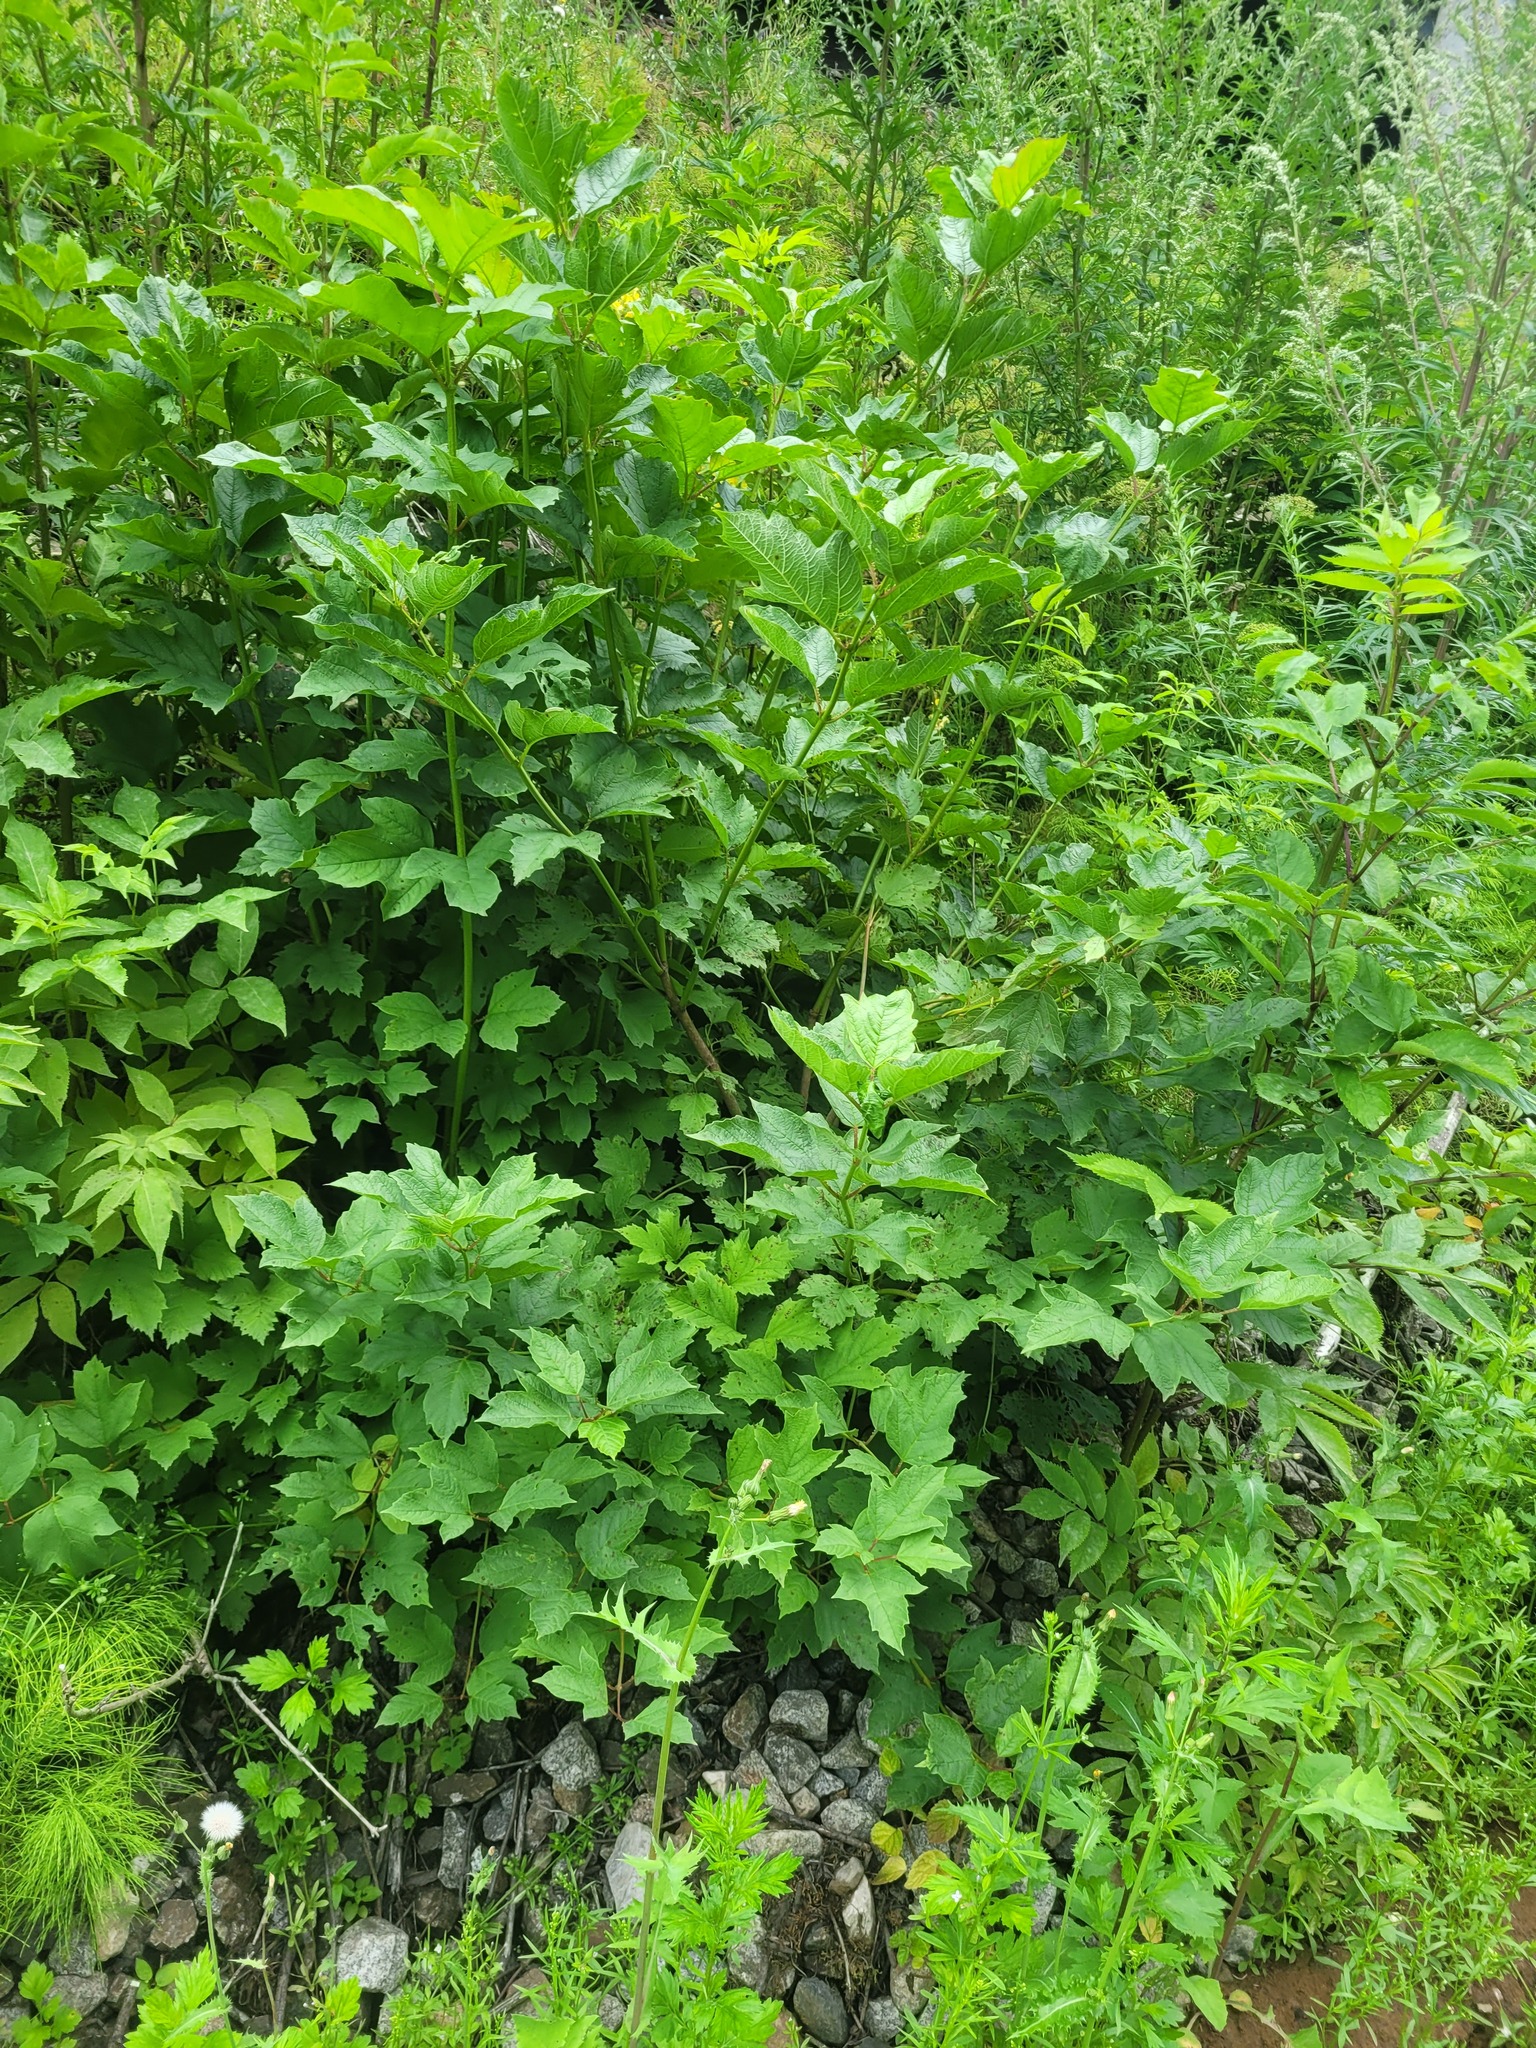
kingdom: Plantae
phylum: Tracheophyta
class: Magnoliopsida
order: Dipsacales
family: Viburnaceae
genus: Viburnum
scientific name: Viburnum opulus
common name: Guelder-rose
